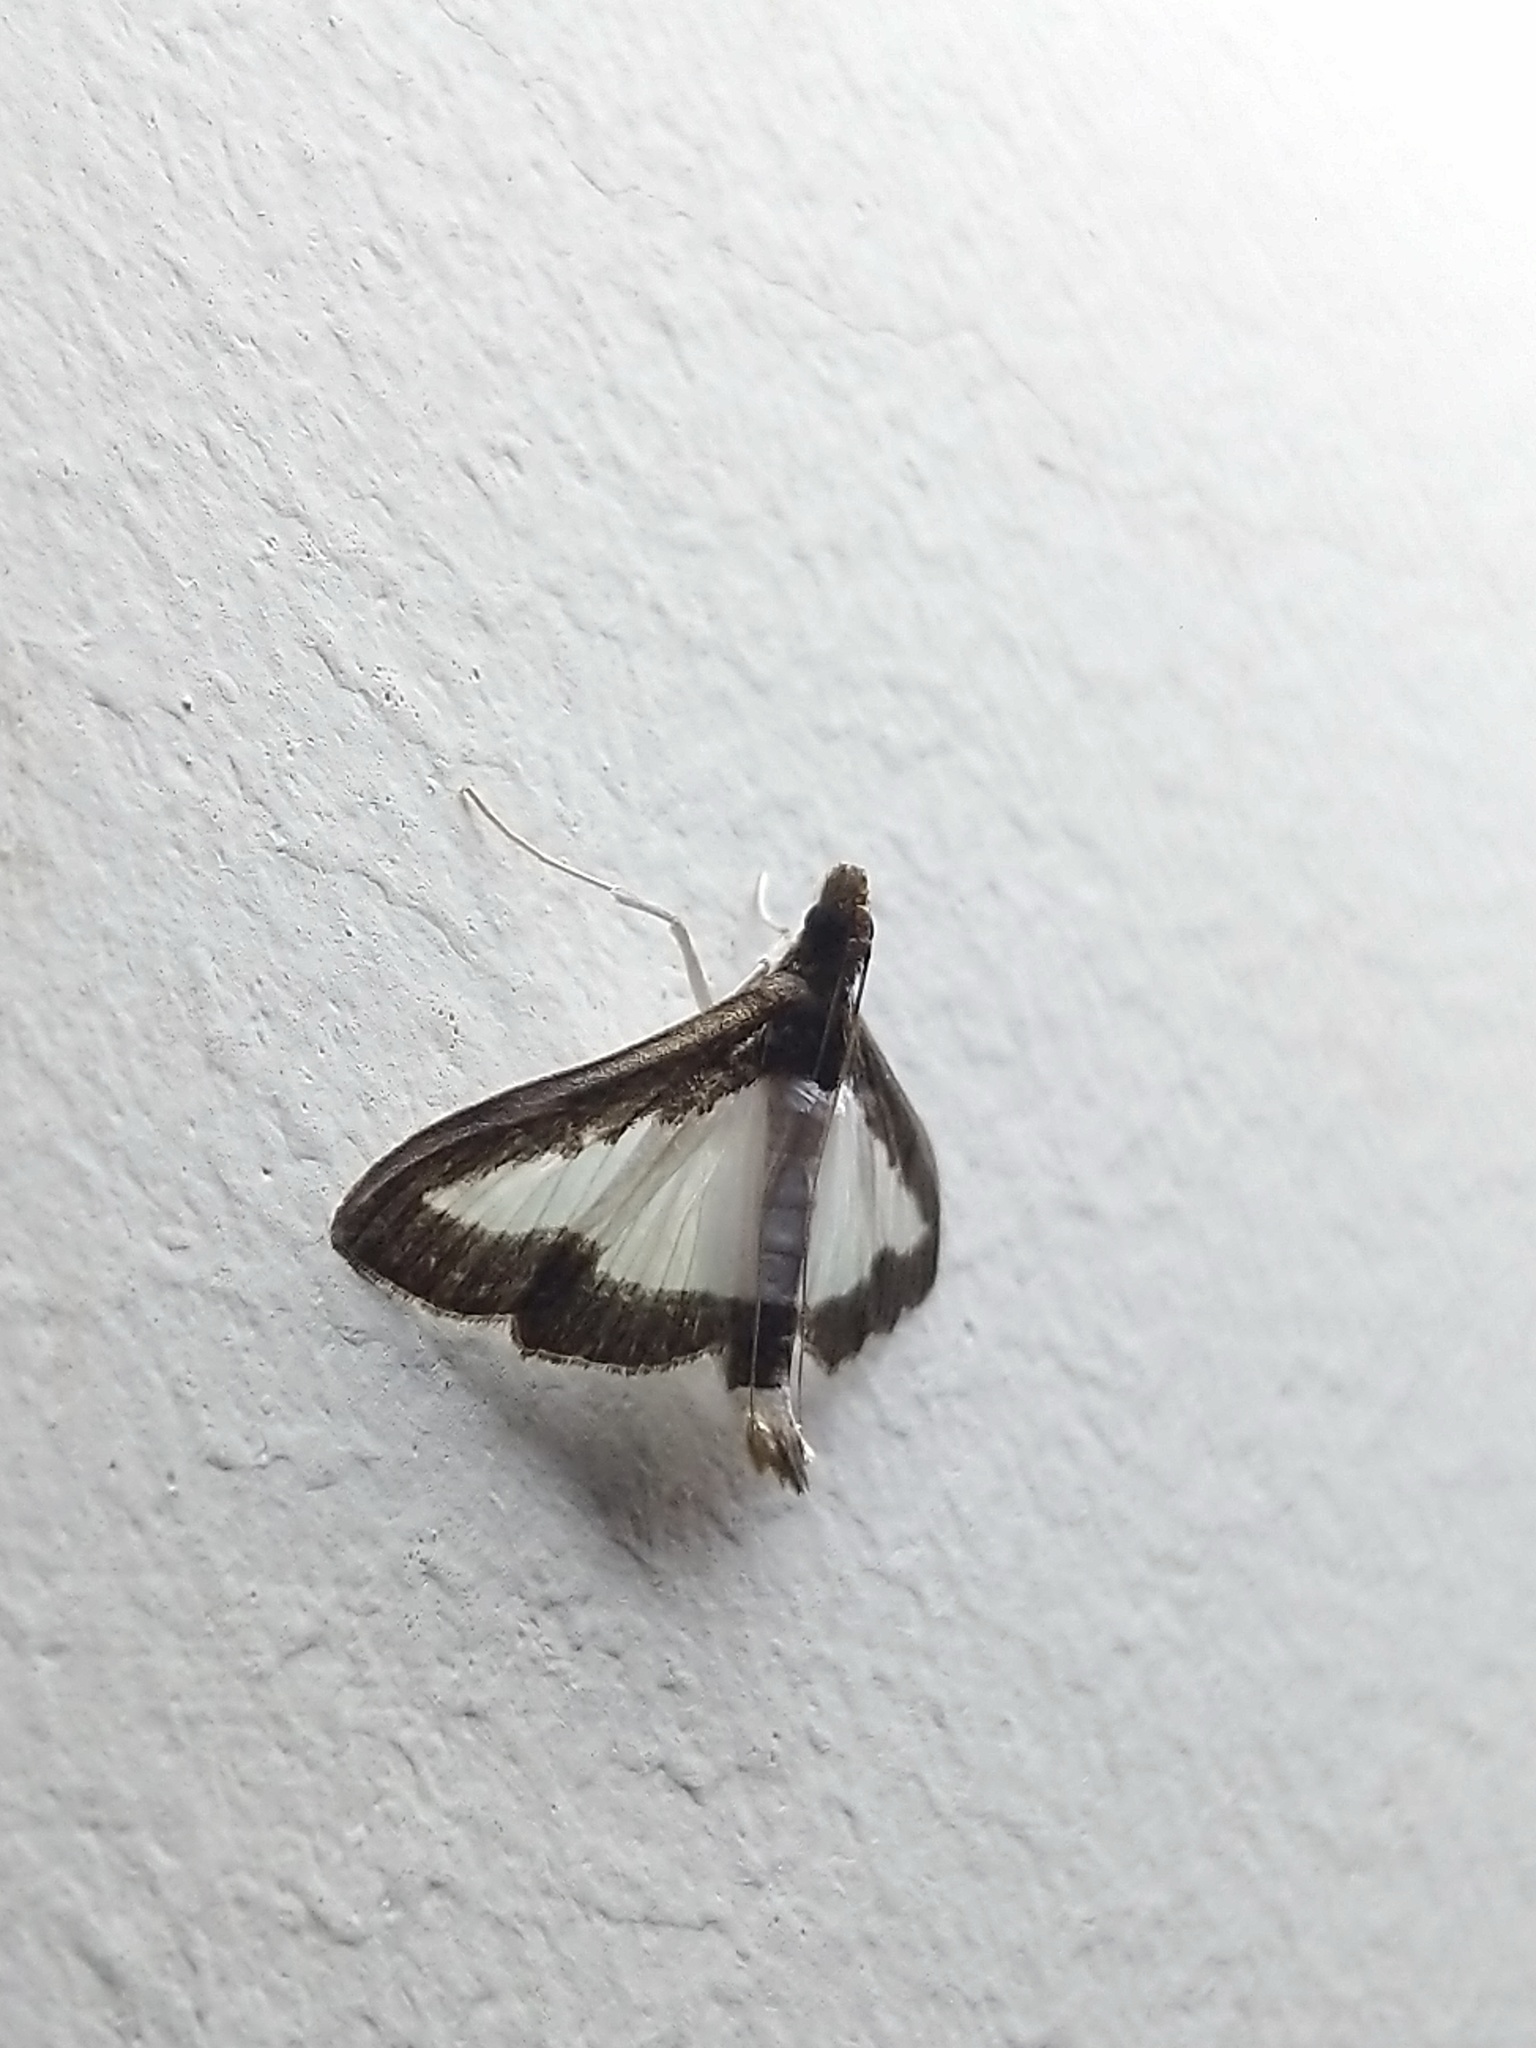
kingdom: Animalia
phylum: Arthropoda
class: Insecta
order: Lepidoptera
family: Crambidae
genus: Diaphania
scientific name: Diaphania indica
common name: Cucumber moth
